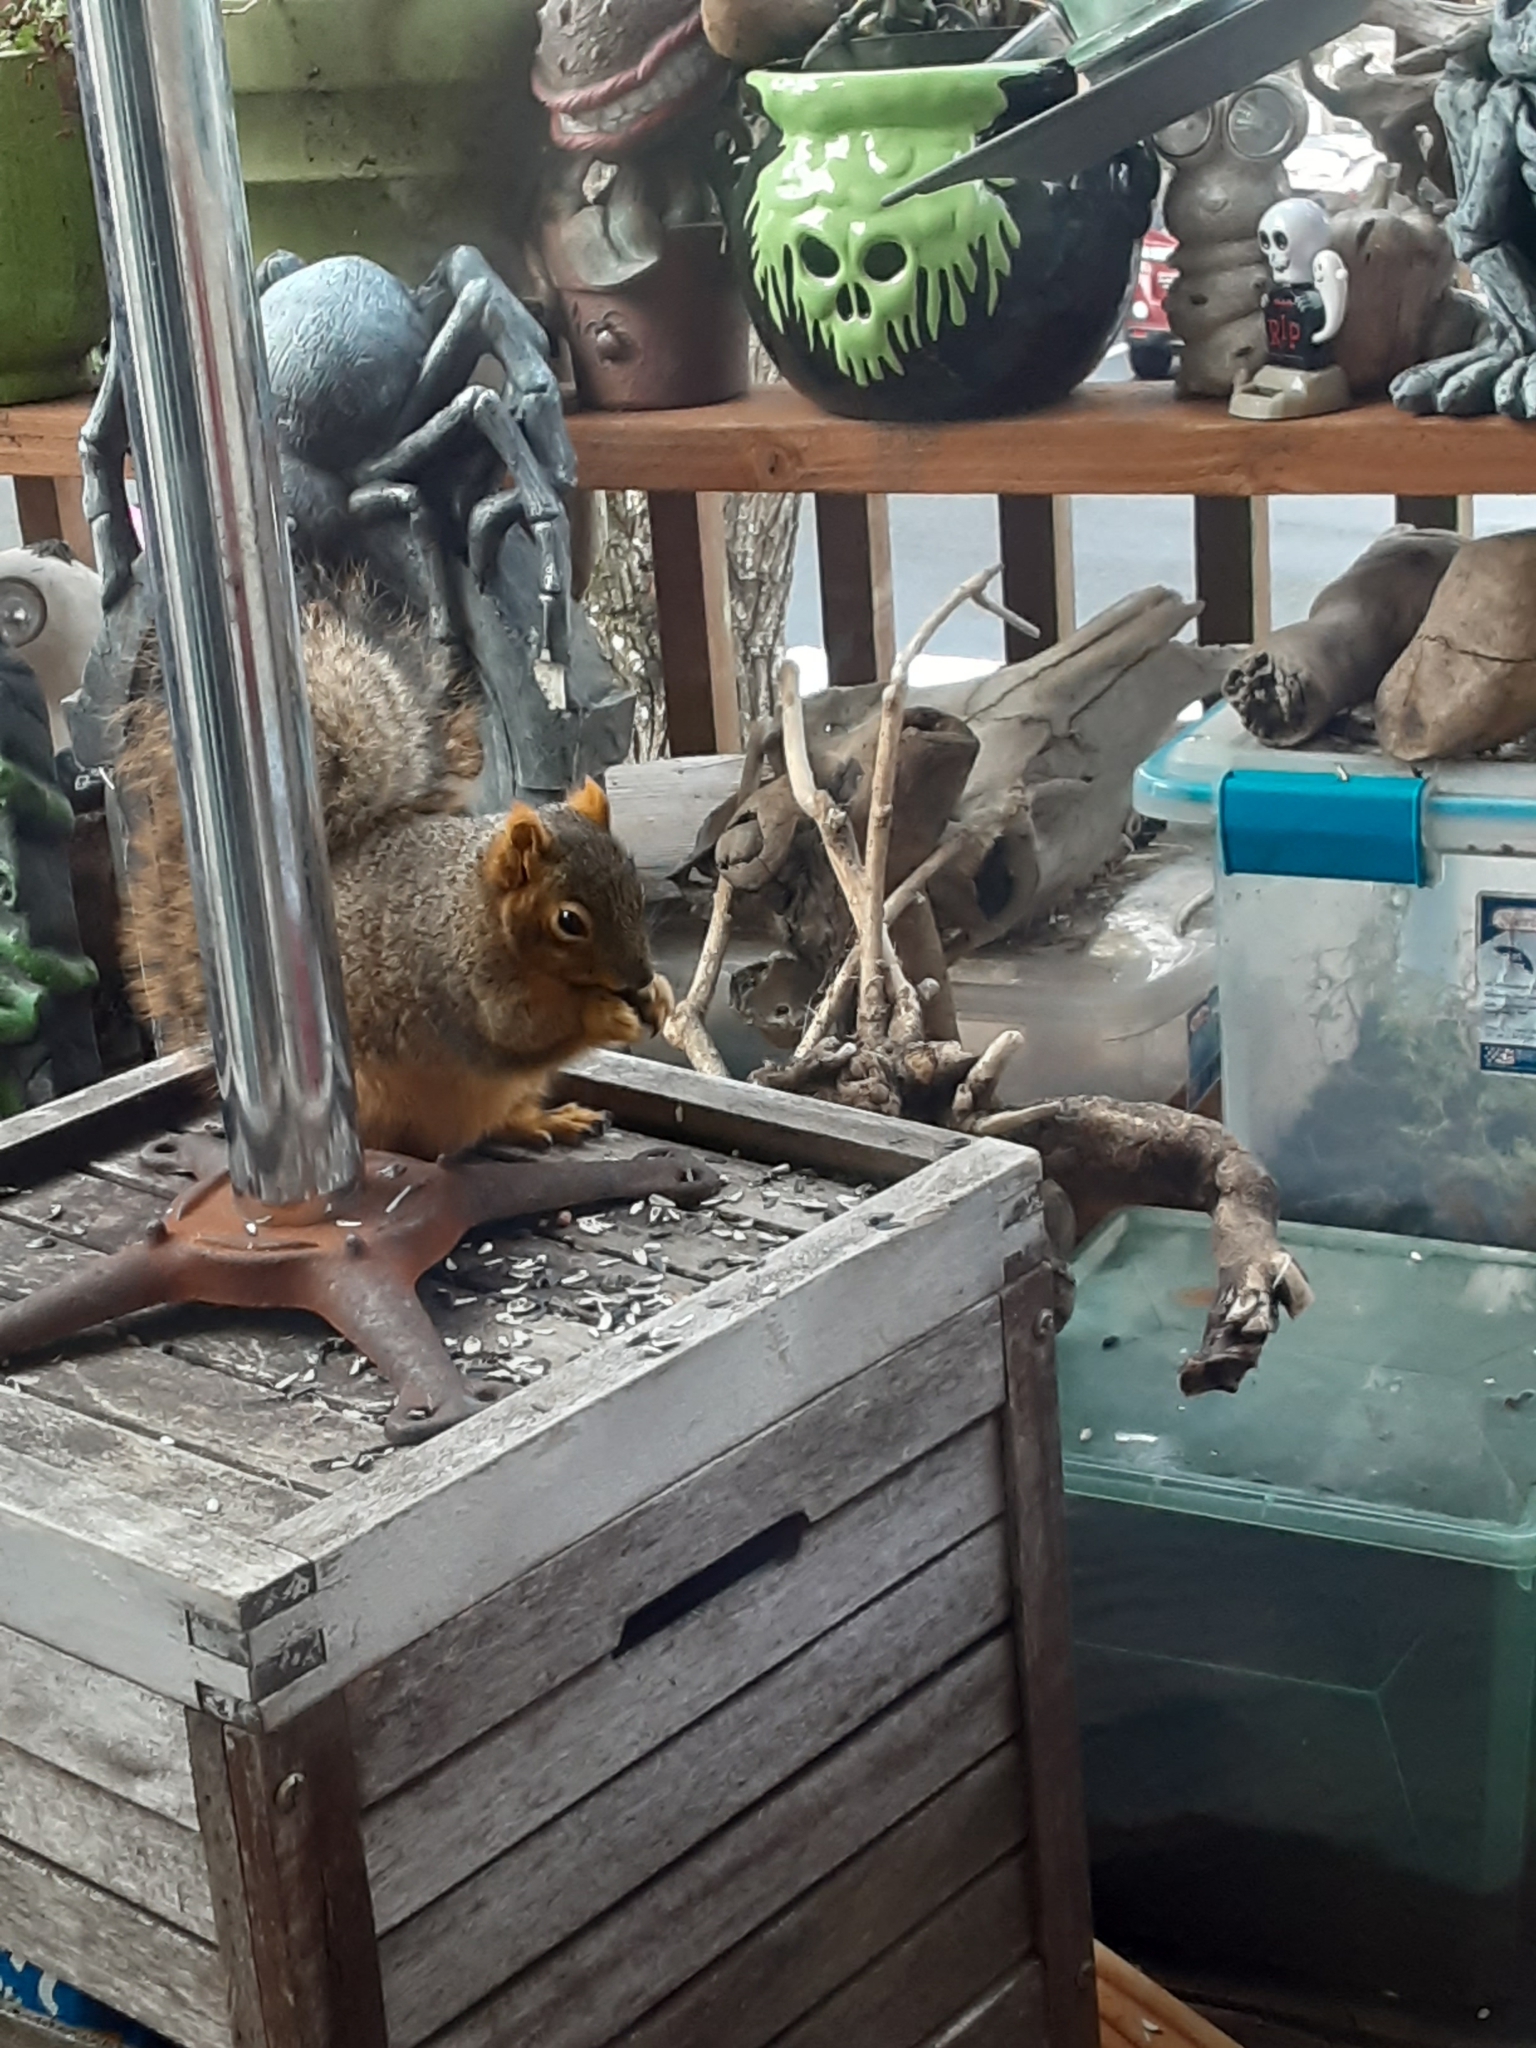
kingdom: Animalia
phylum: Chordata
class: Mammalia
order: Rodentia
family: Sciuridae
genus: Sciurus
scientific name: Sciurus niger
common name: Fox squirrel
